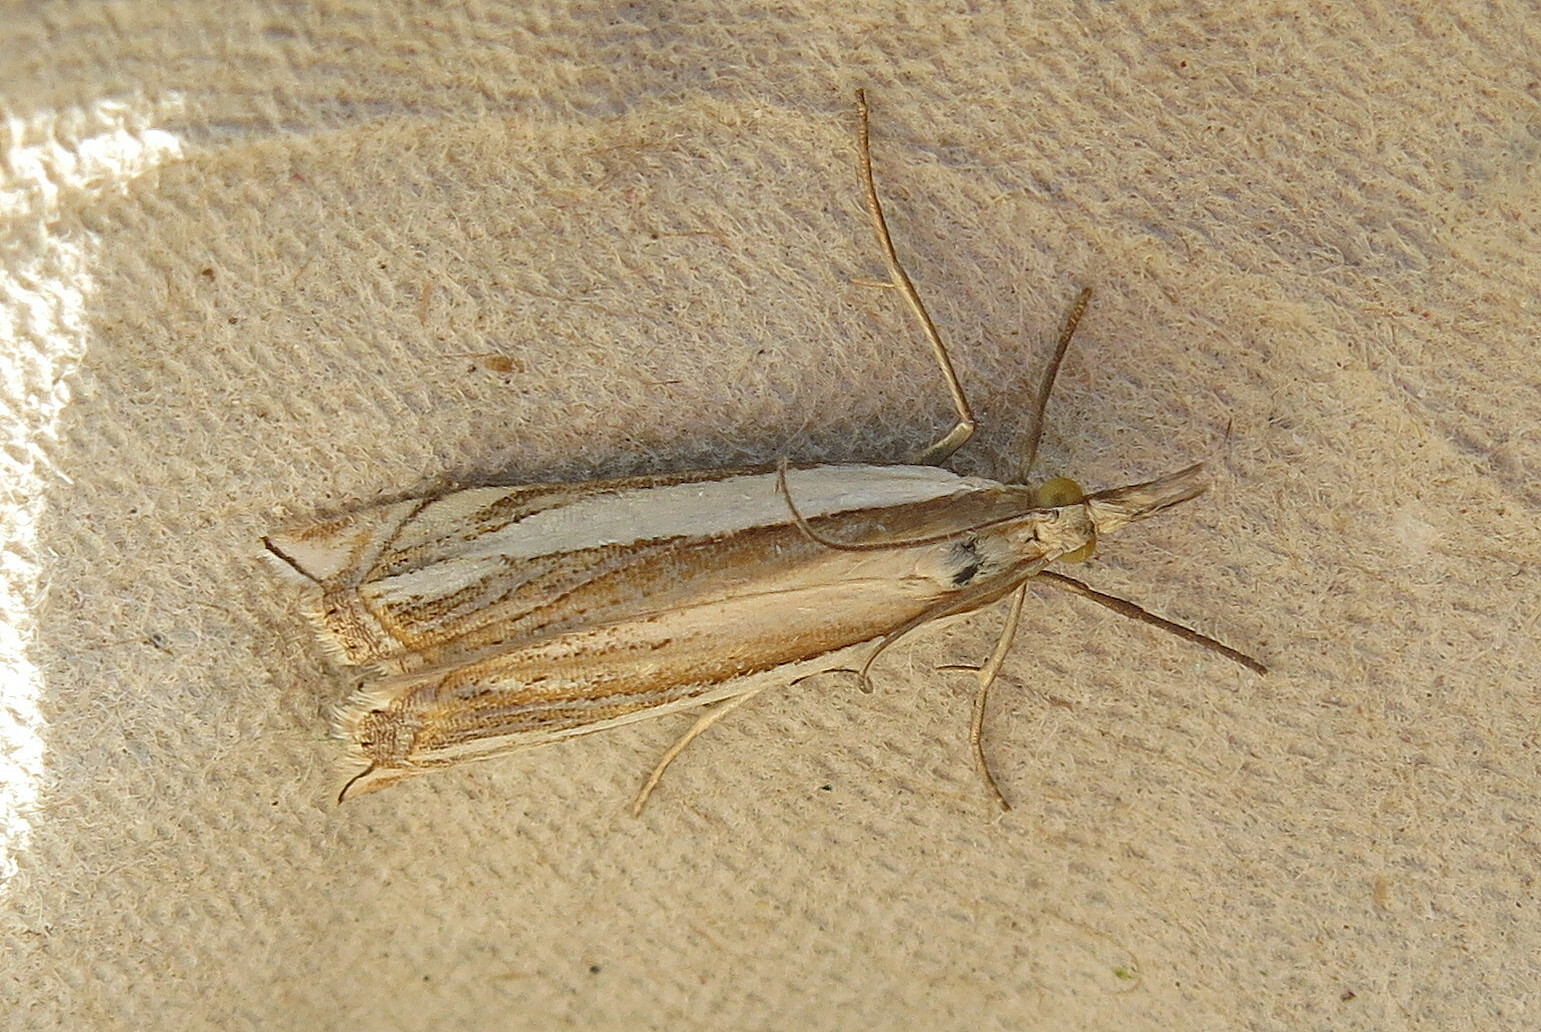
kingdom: Animalia
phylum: Arthropoda
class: Insecta
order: Lepidoptera
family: Crambidae
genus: Crambus
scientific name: Crambus pascuella
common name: Inlaid grass-veneer
